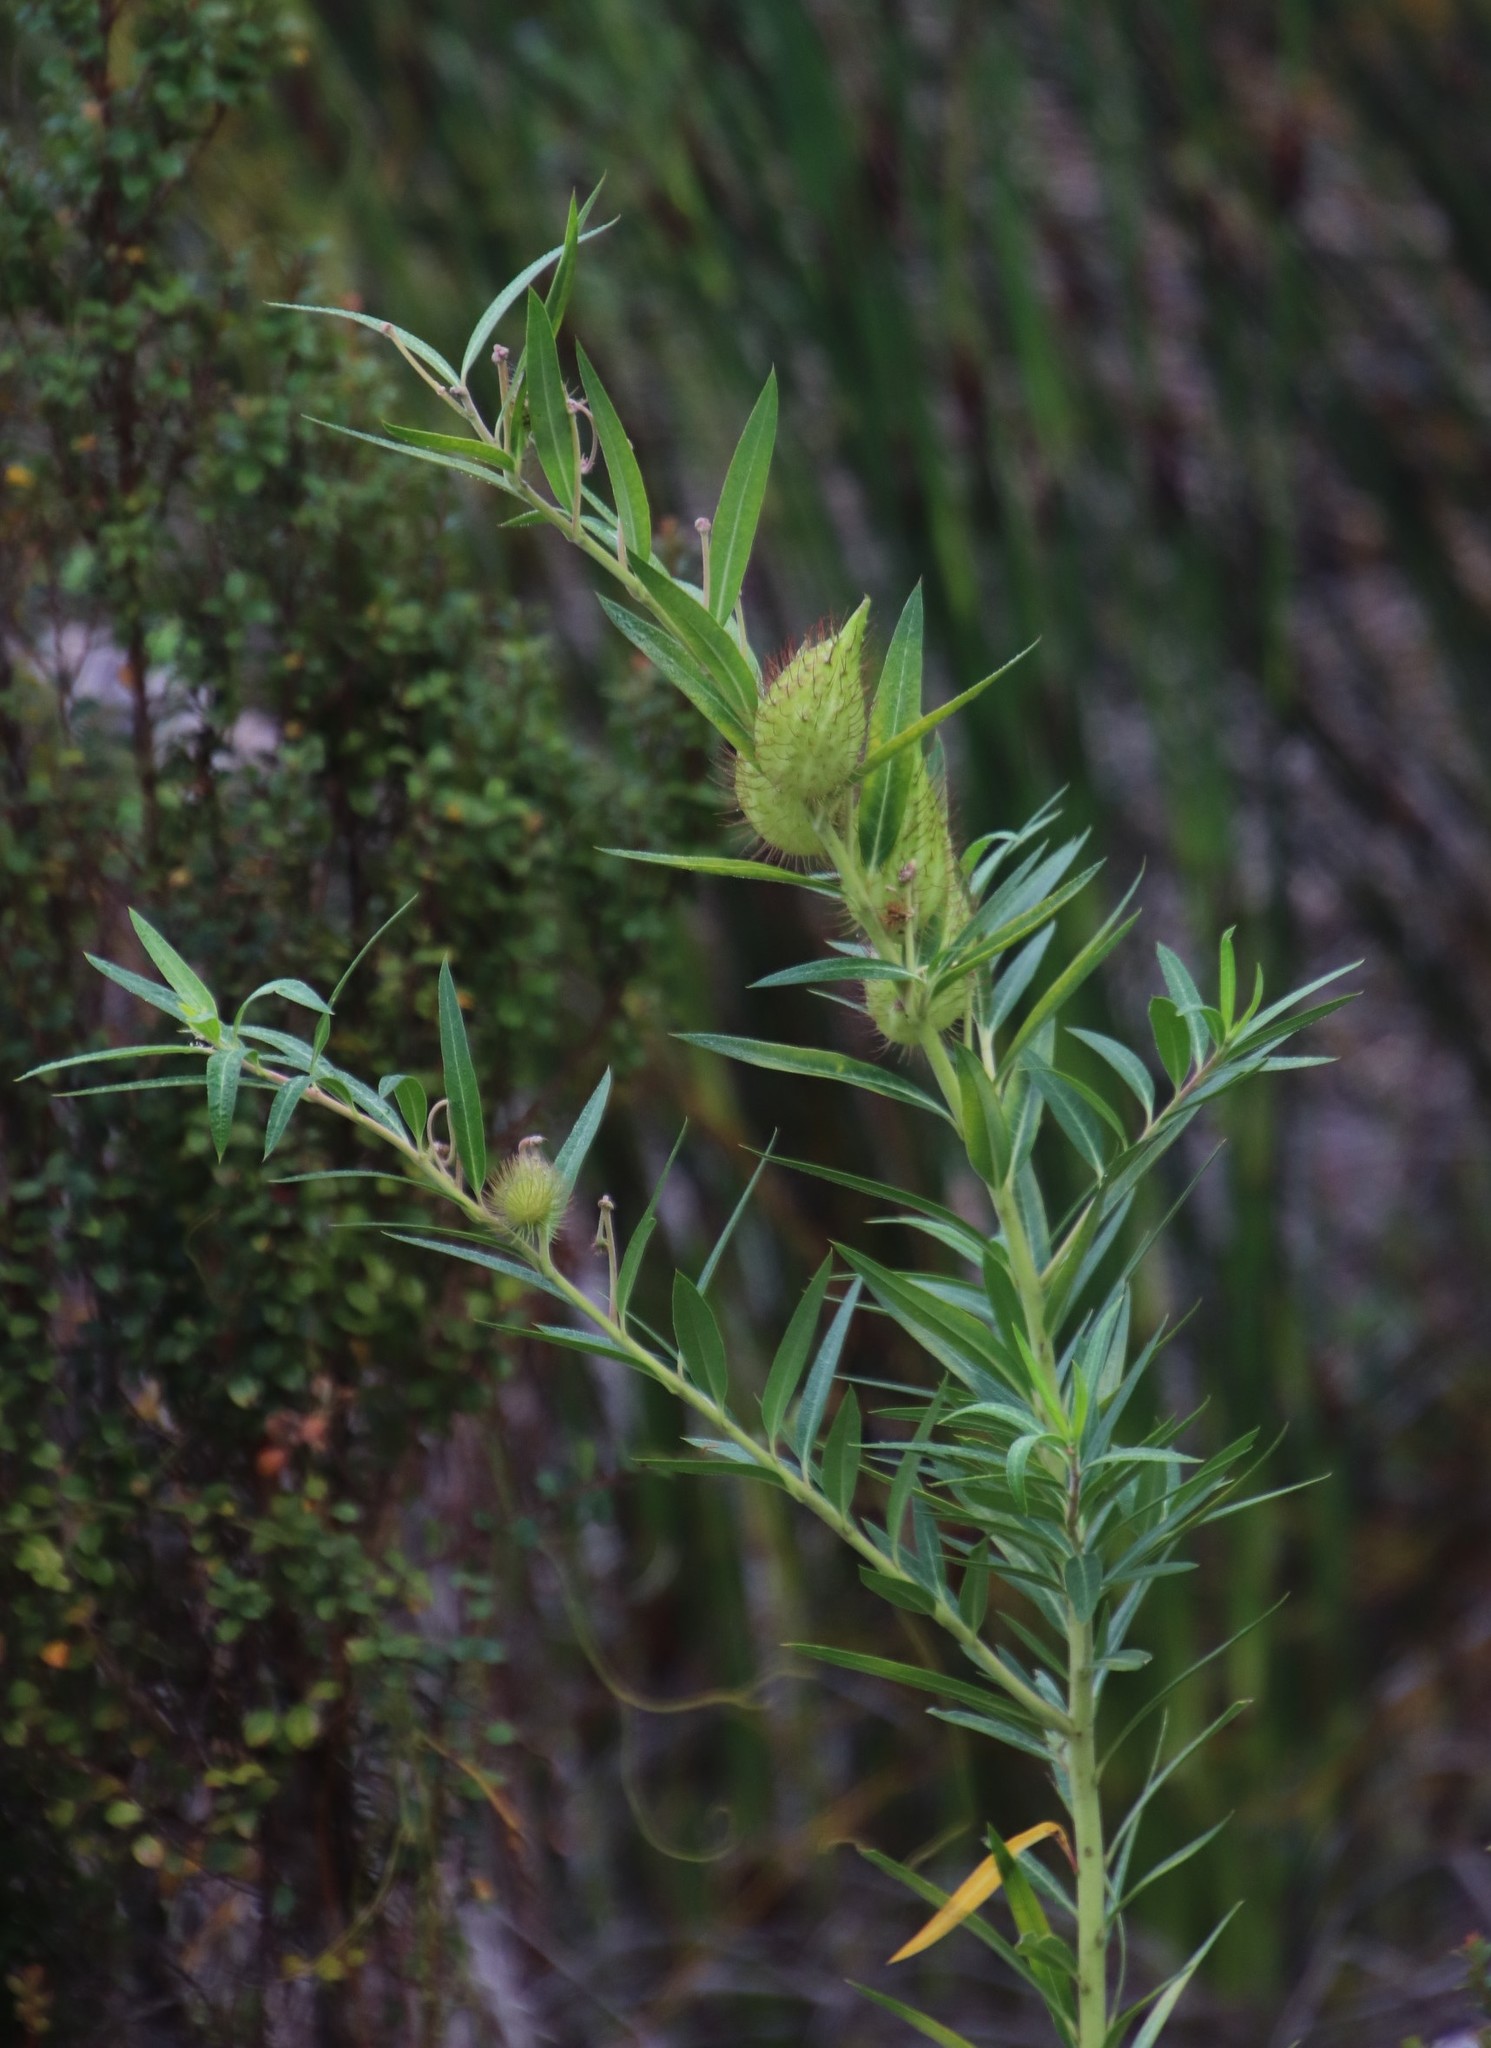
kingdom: Plantae
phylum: Tracheophyta
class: Magnoliopsida
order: Gentianales
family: Apocynaceae
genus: Gomphocarpus
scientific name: Gomphocarpus fruticosus
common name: Milkweed
